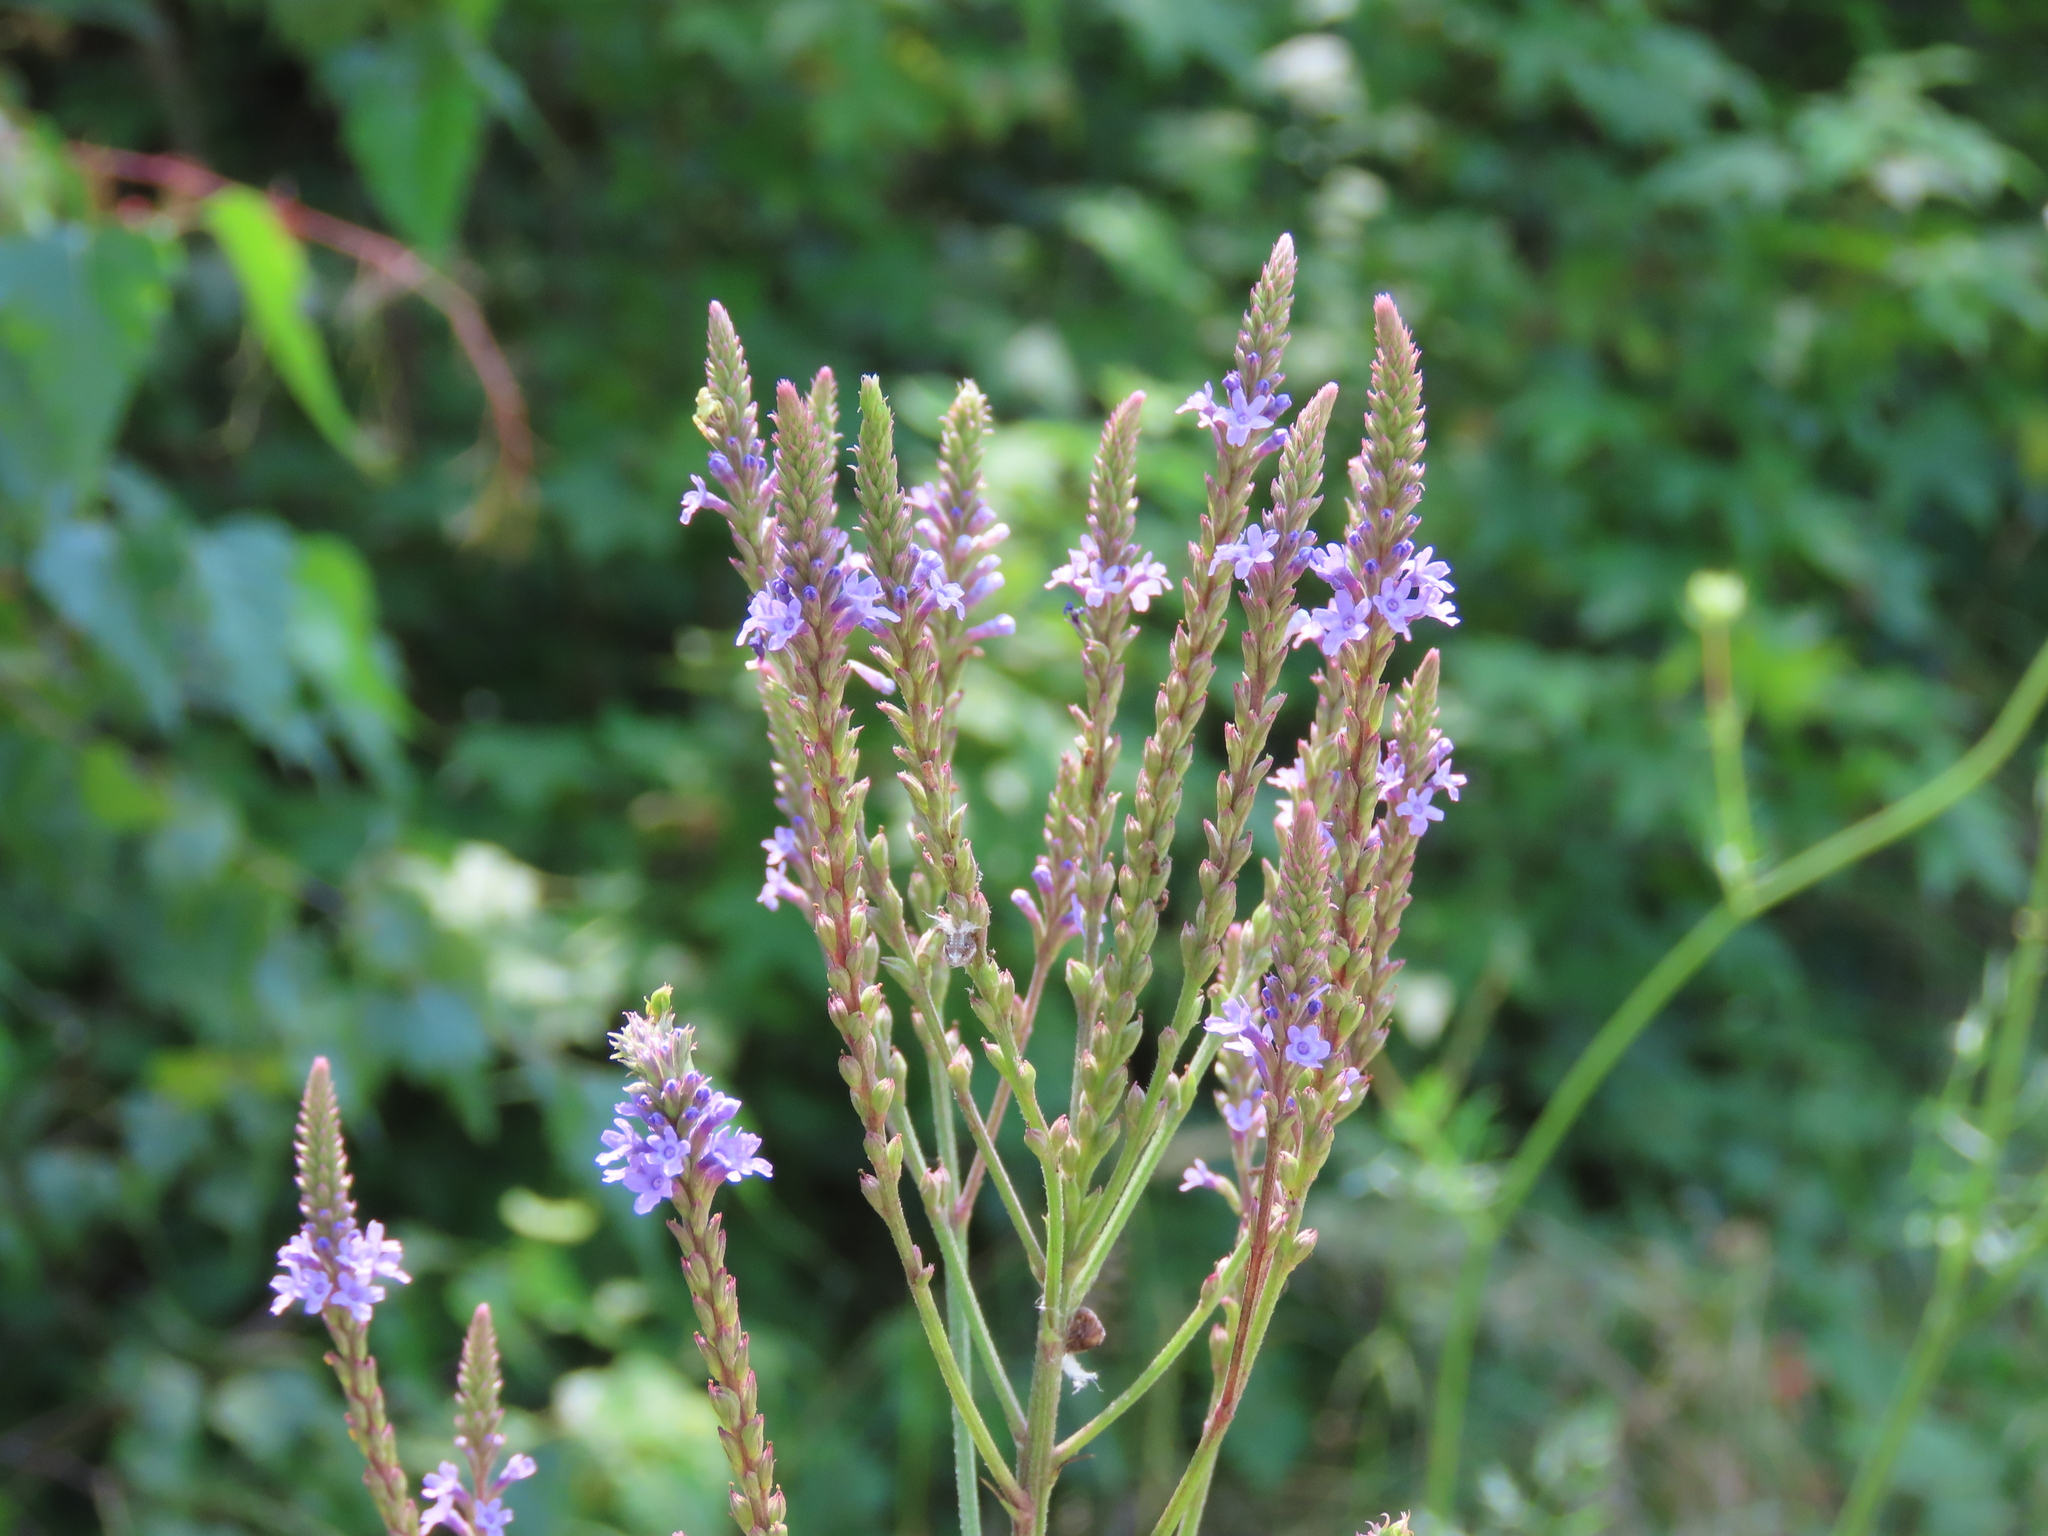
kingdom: Plantae
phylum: Tracheophyta
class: Magnoliopsida
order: Lamiales
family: Verbenaceae
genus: Verbena
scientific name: Verbena hastata
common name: American blue vervain
